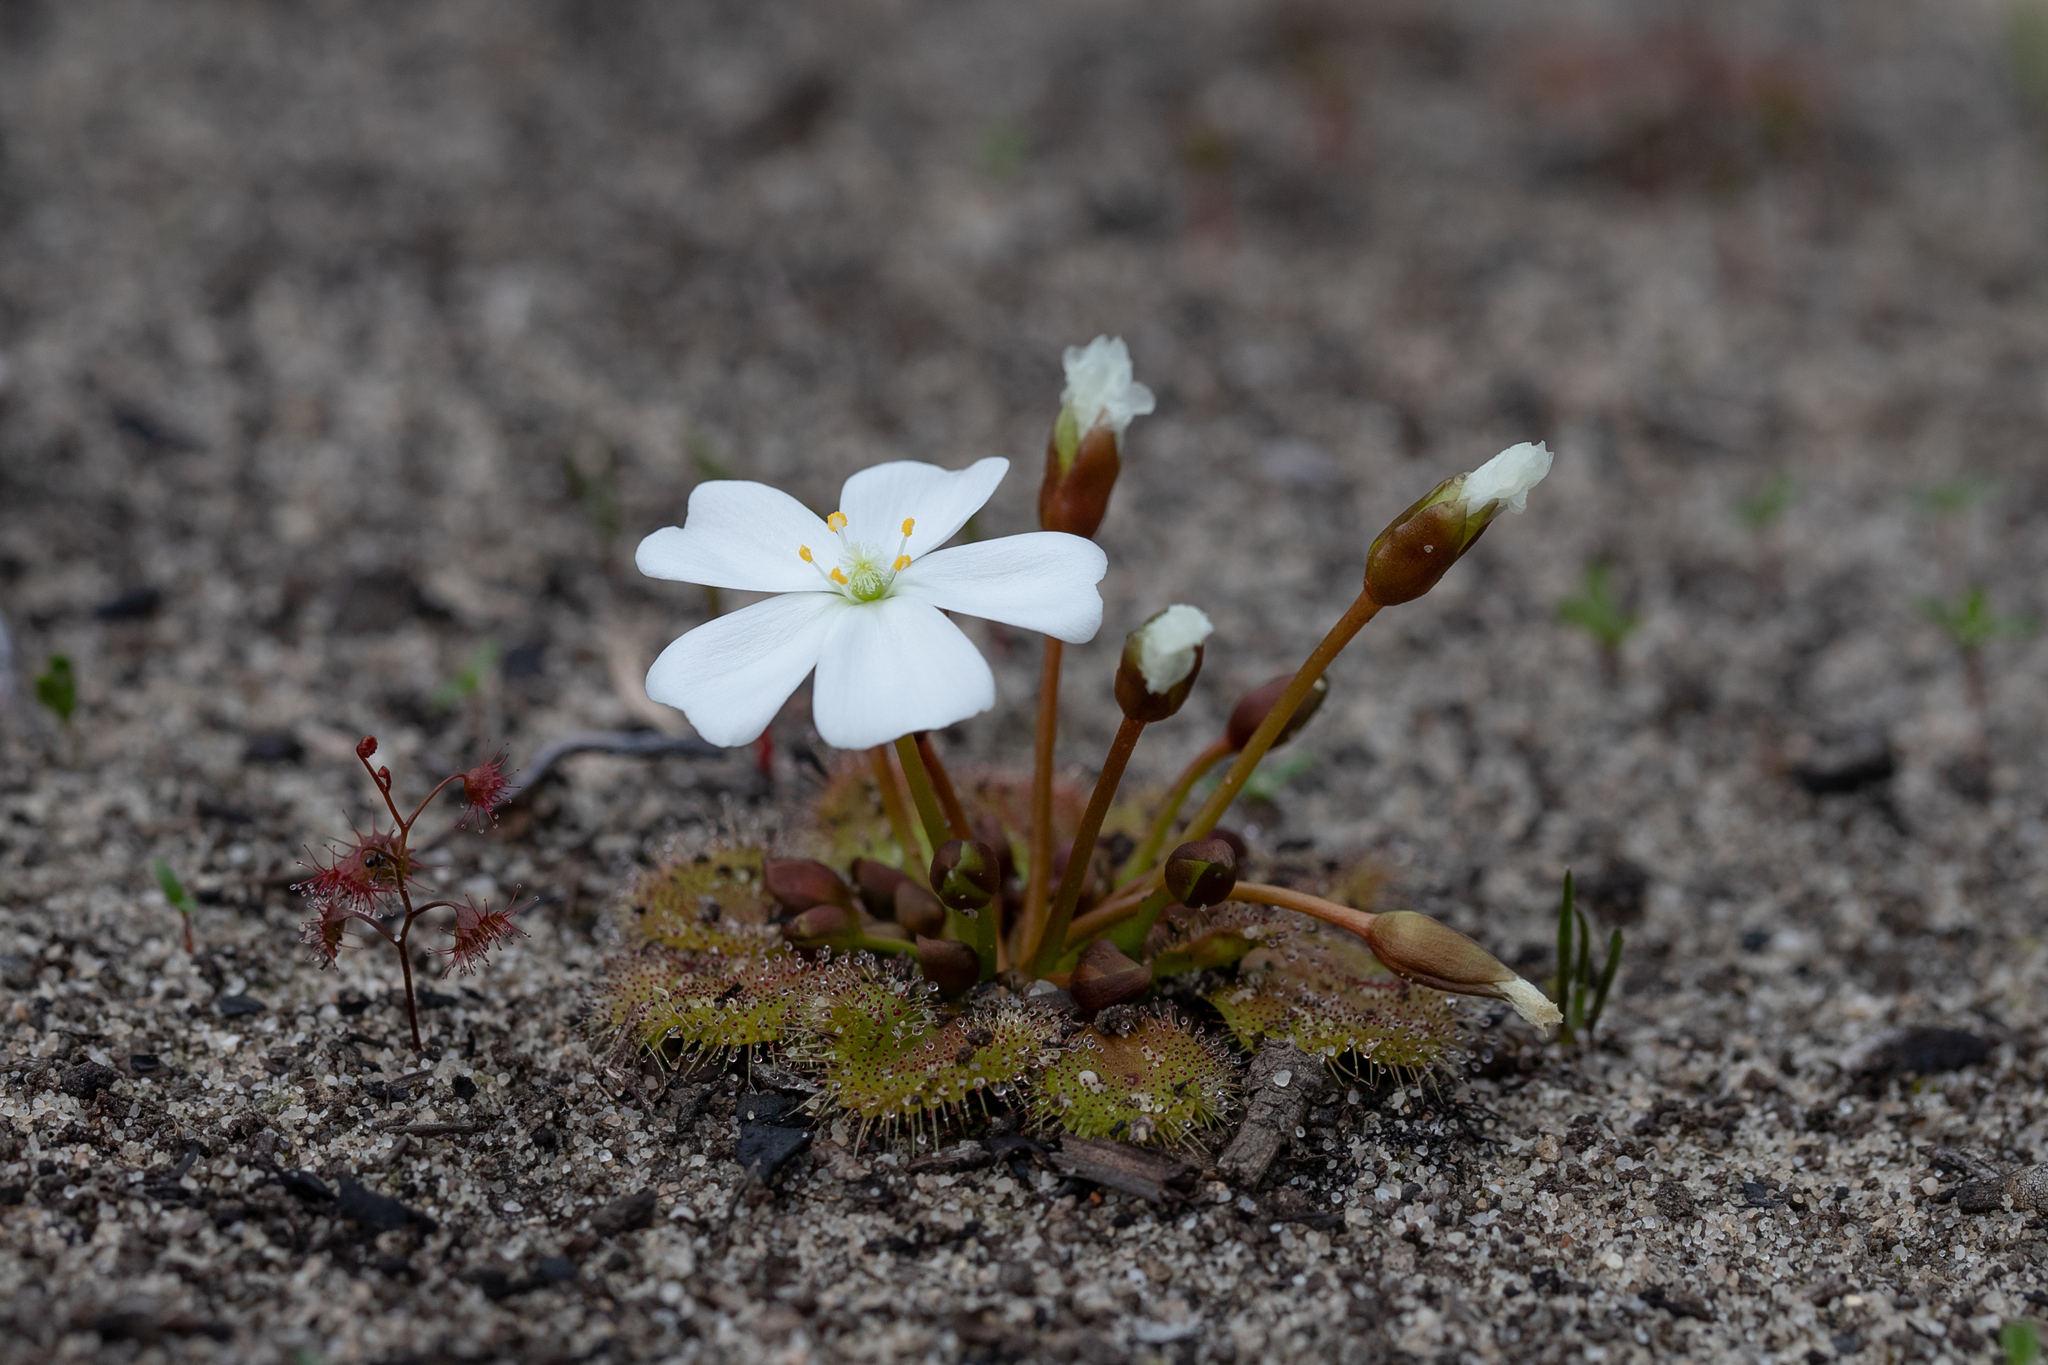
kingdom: Plantae
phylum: Tracheophyta
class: Magnoliopsida
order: Caryophyllales
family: Droseraceae
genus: Drosera
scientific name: Drosera whittakeri
